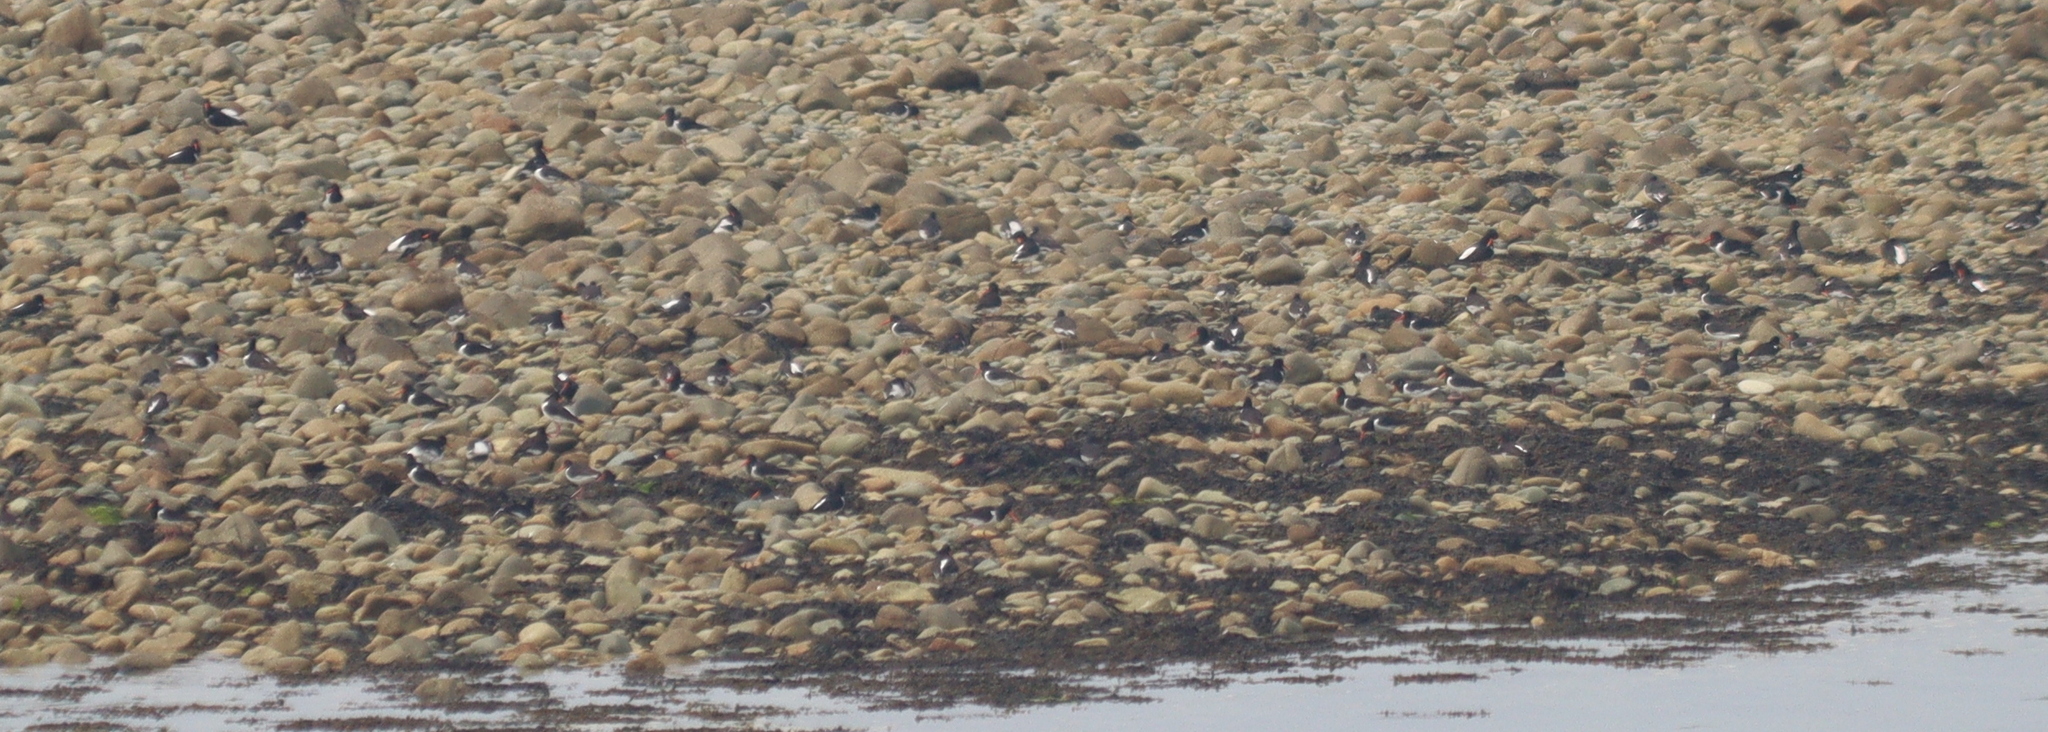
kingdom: Animalia
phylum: Chordata
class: Aves
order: Charadriiformes
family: Haematopodidae
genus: Haematopus
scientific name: Haematopus ostralegus
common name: Eurasian oystercatcher
